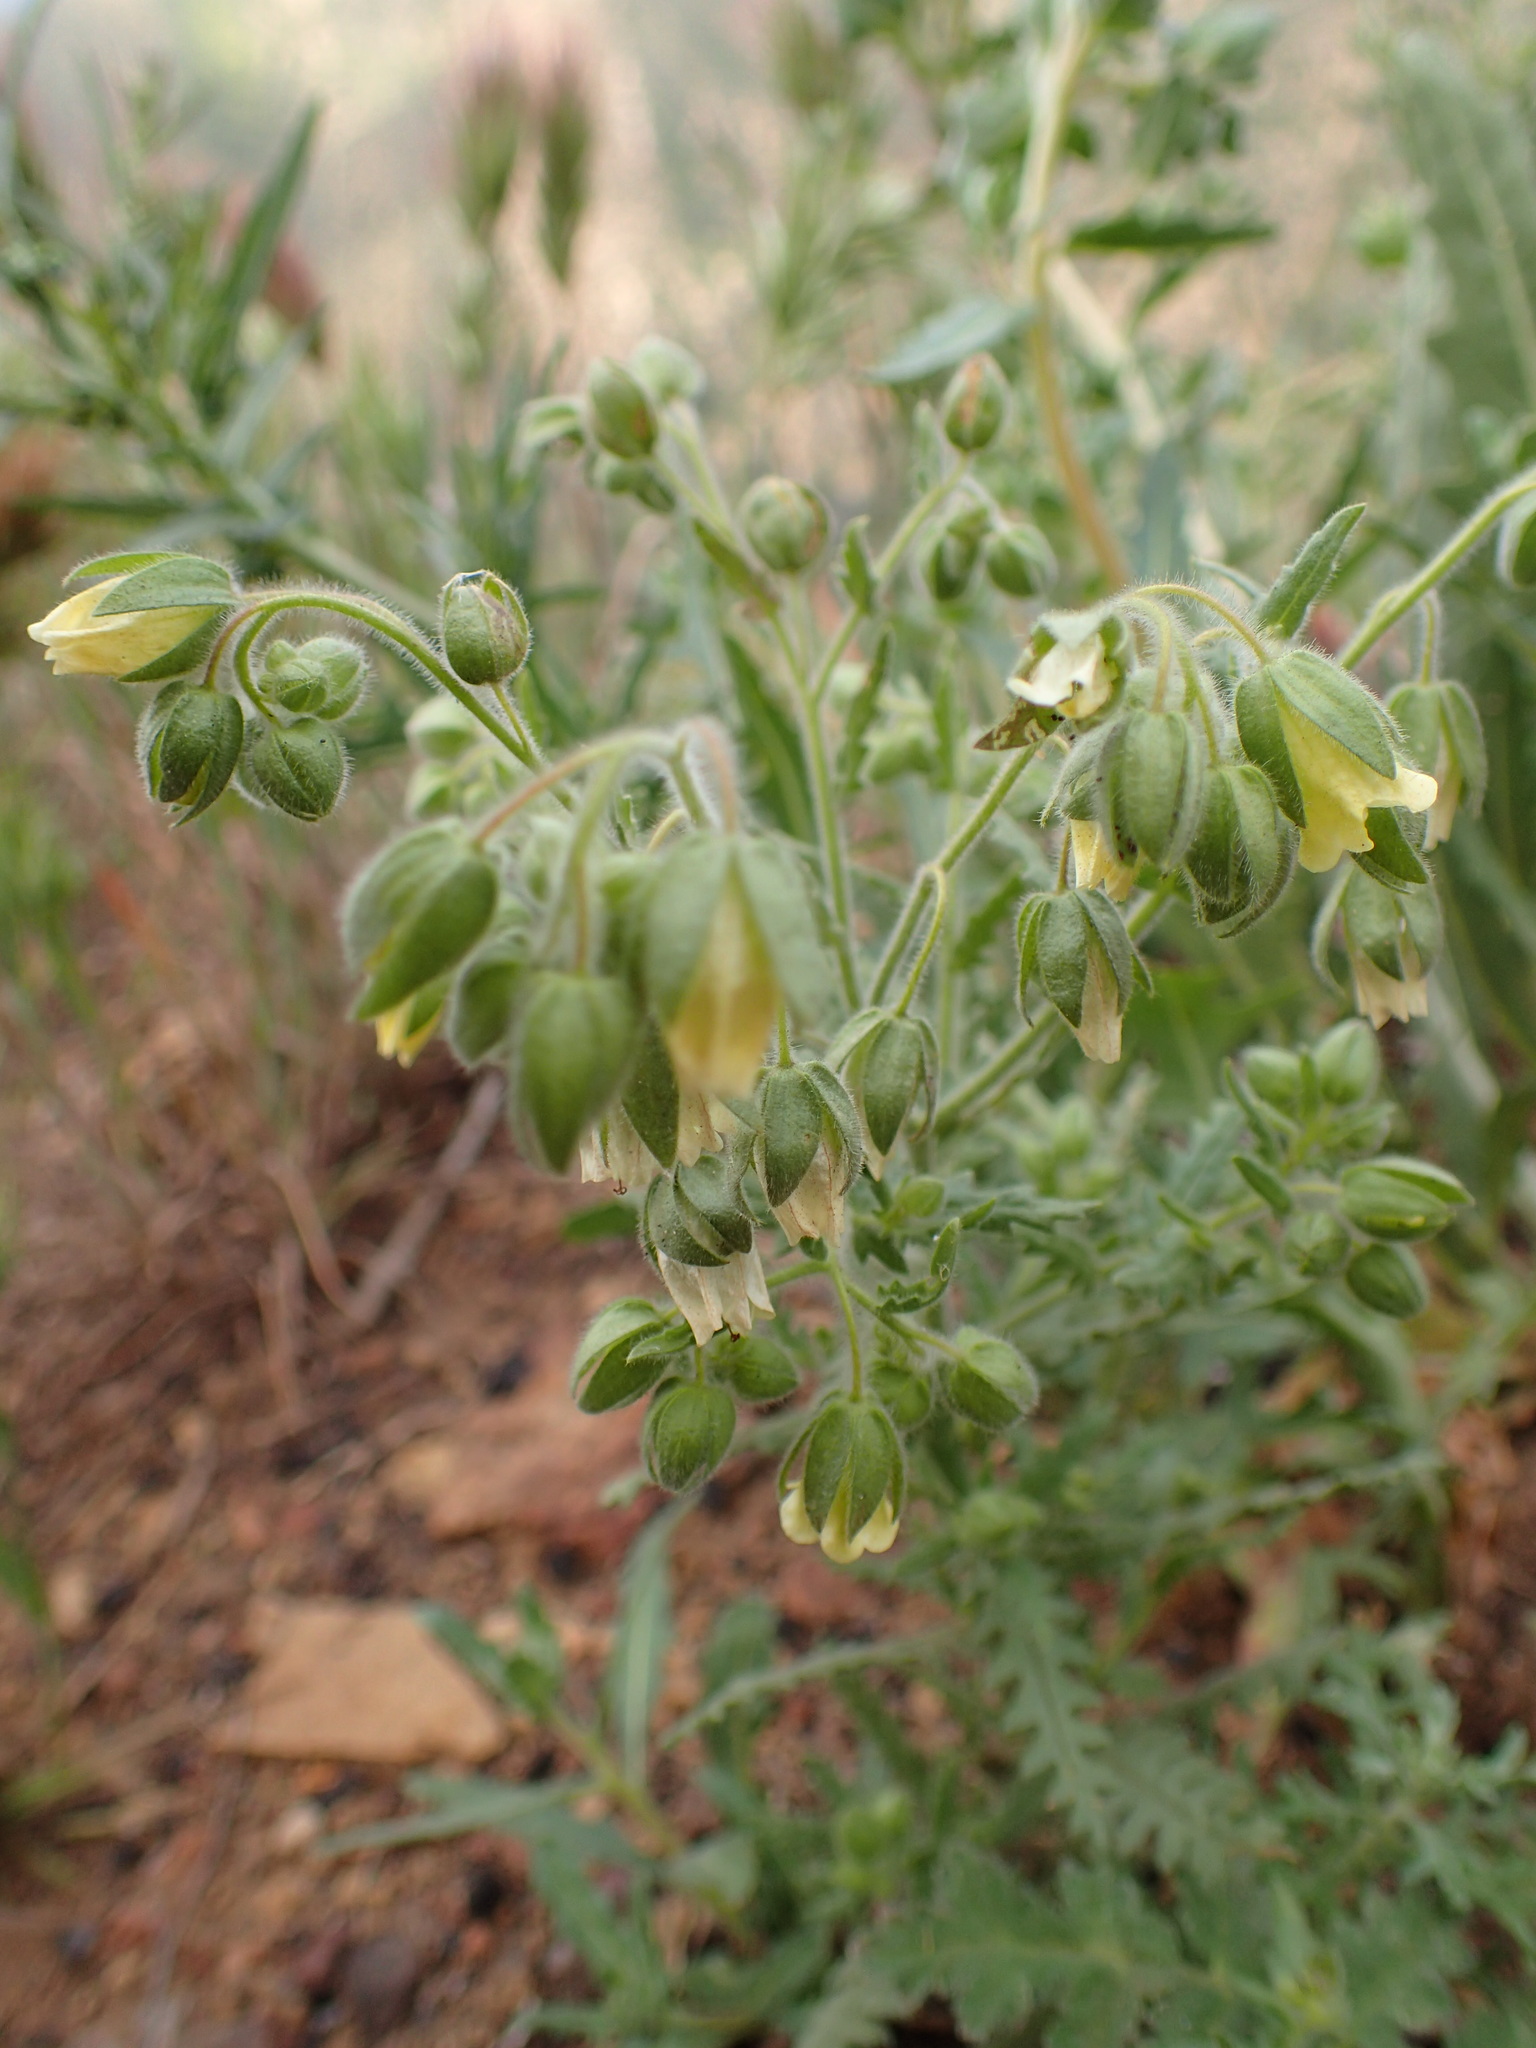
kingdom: Plantae
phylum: Tracheophyta
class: Magnoliopsida
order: Boraginales
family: Hydrophyllaceae
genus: Emmenanthe
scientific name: Emmenanthe penduliflora
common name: Whispering-bells
